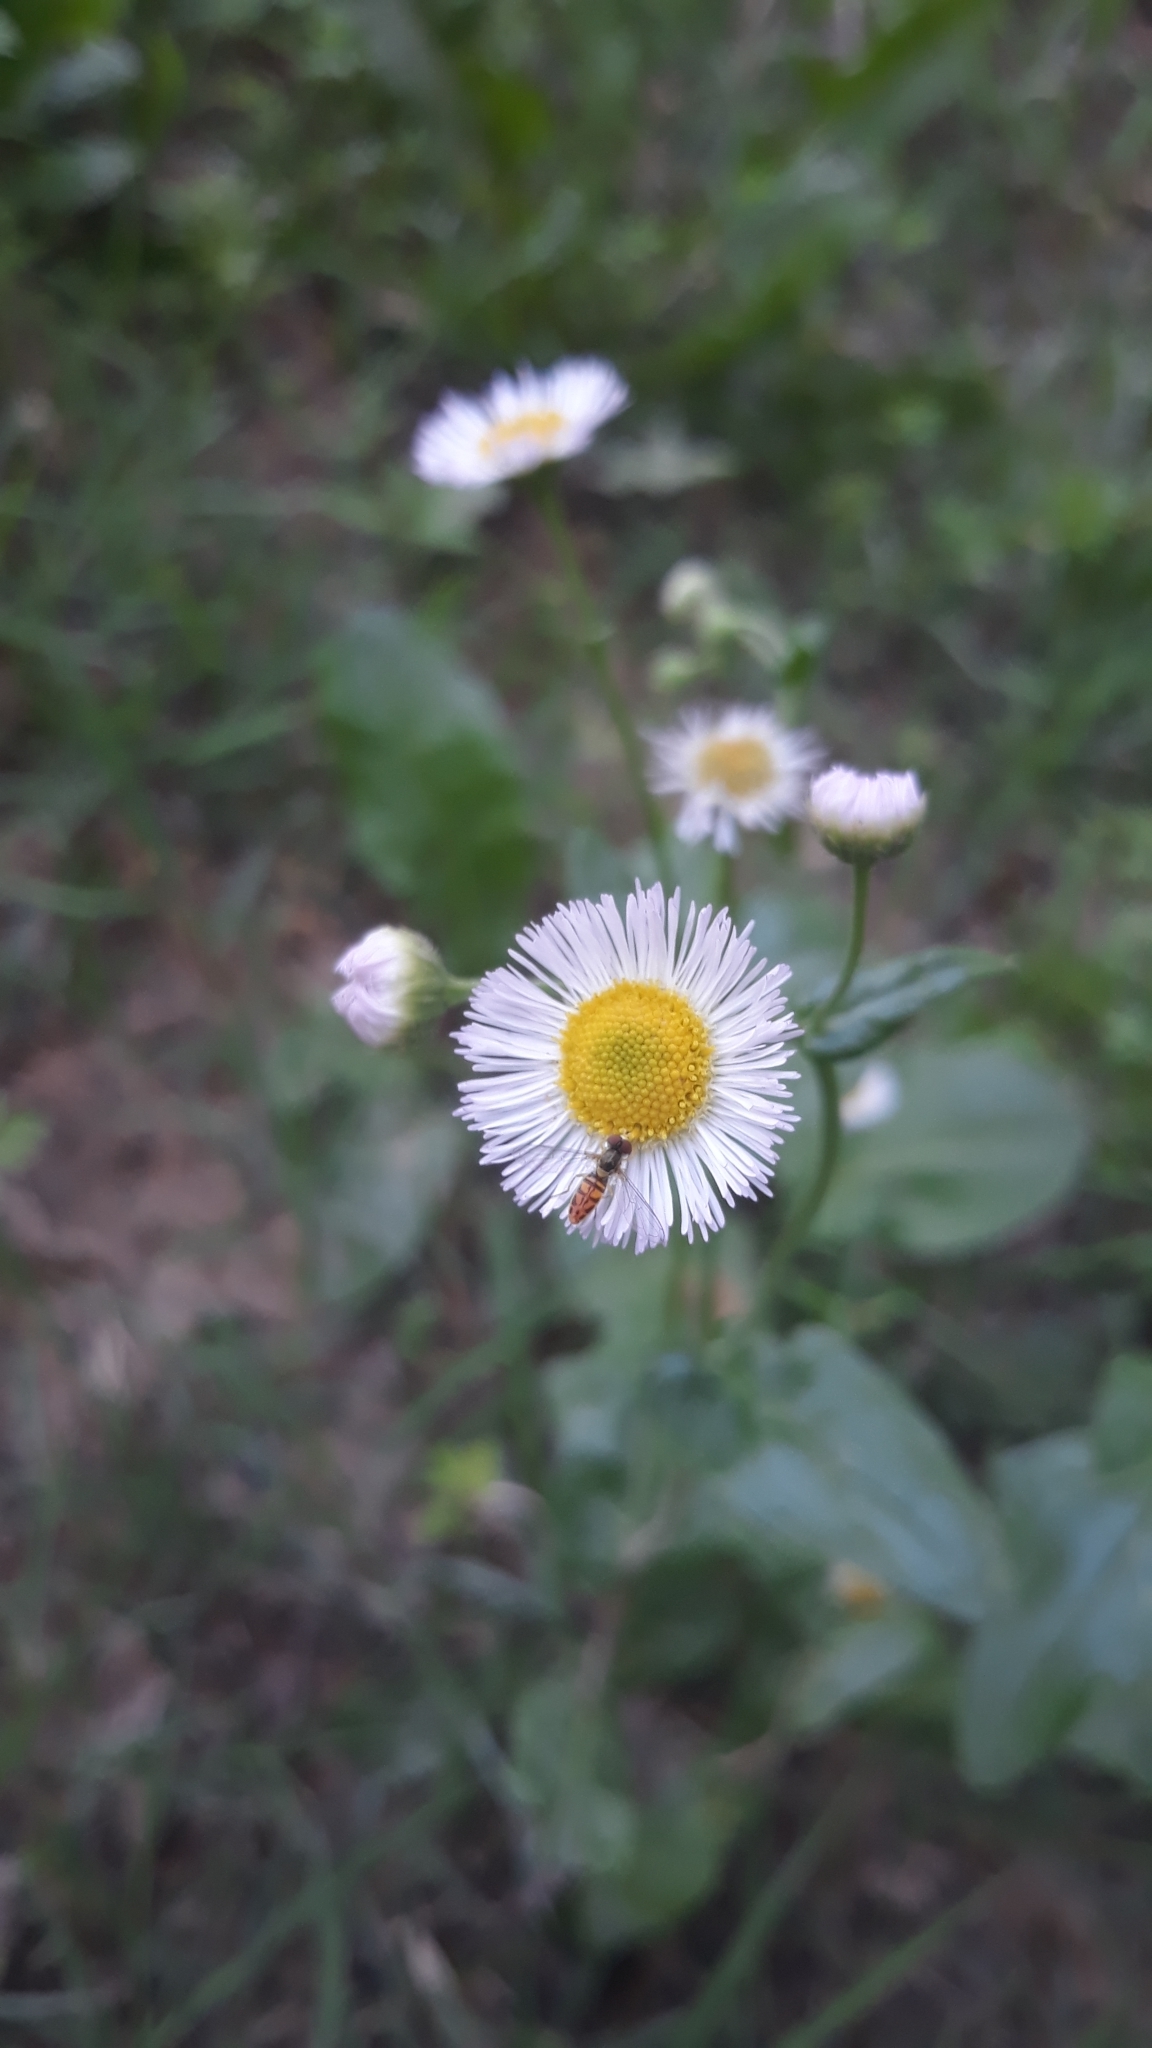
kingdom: Plantae
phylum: Tracheophyta
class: Magnoliopsida
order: Asterales
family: Asteraceae
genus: Erigeron
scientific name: Erigeron philadelphicus
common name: Robin's-plantain
